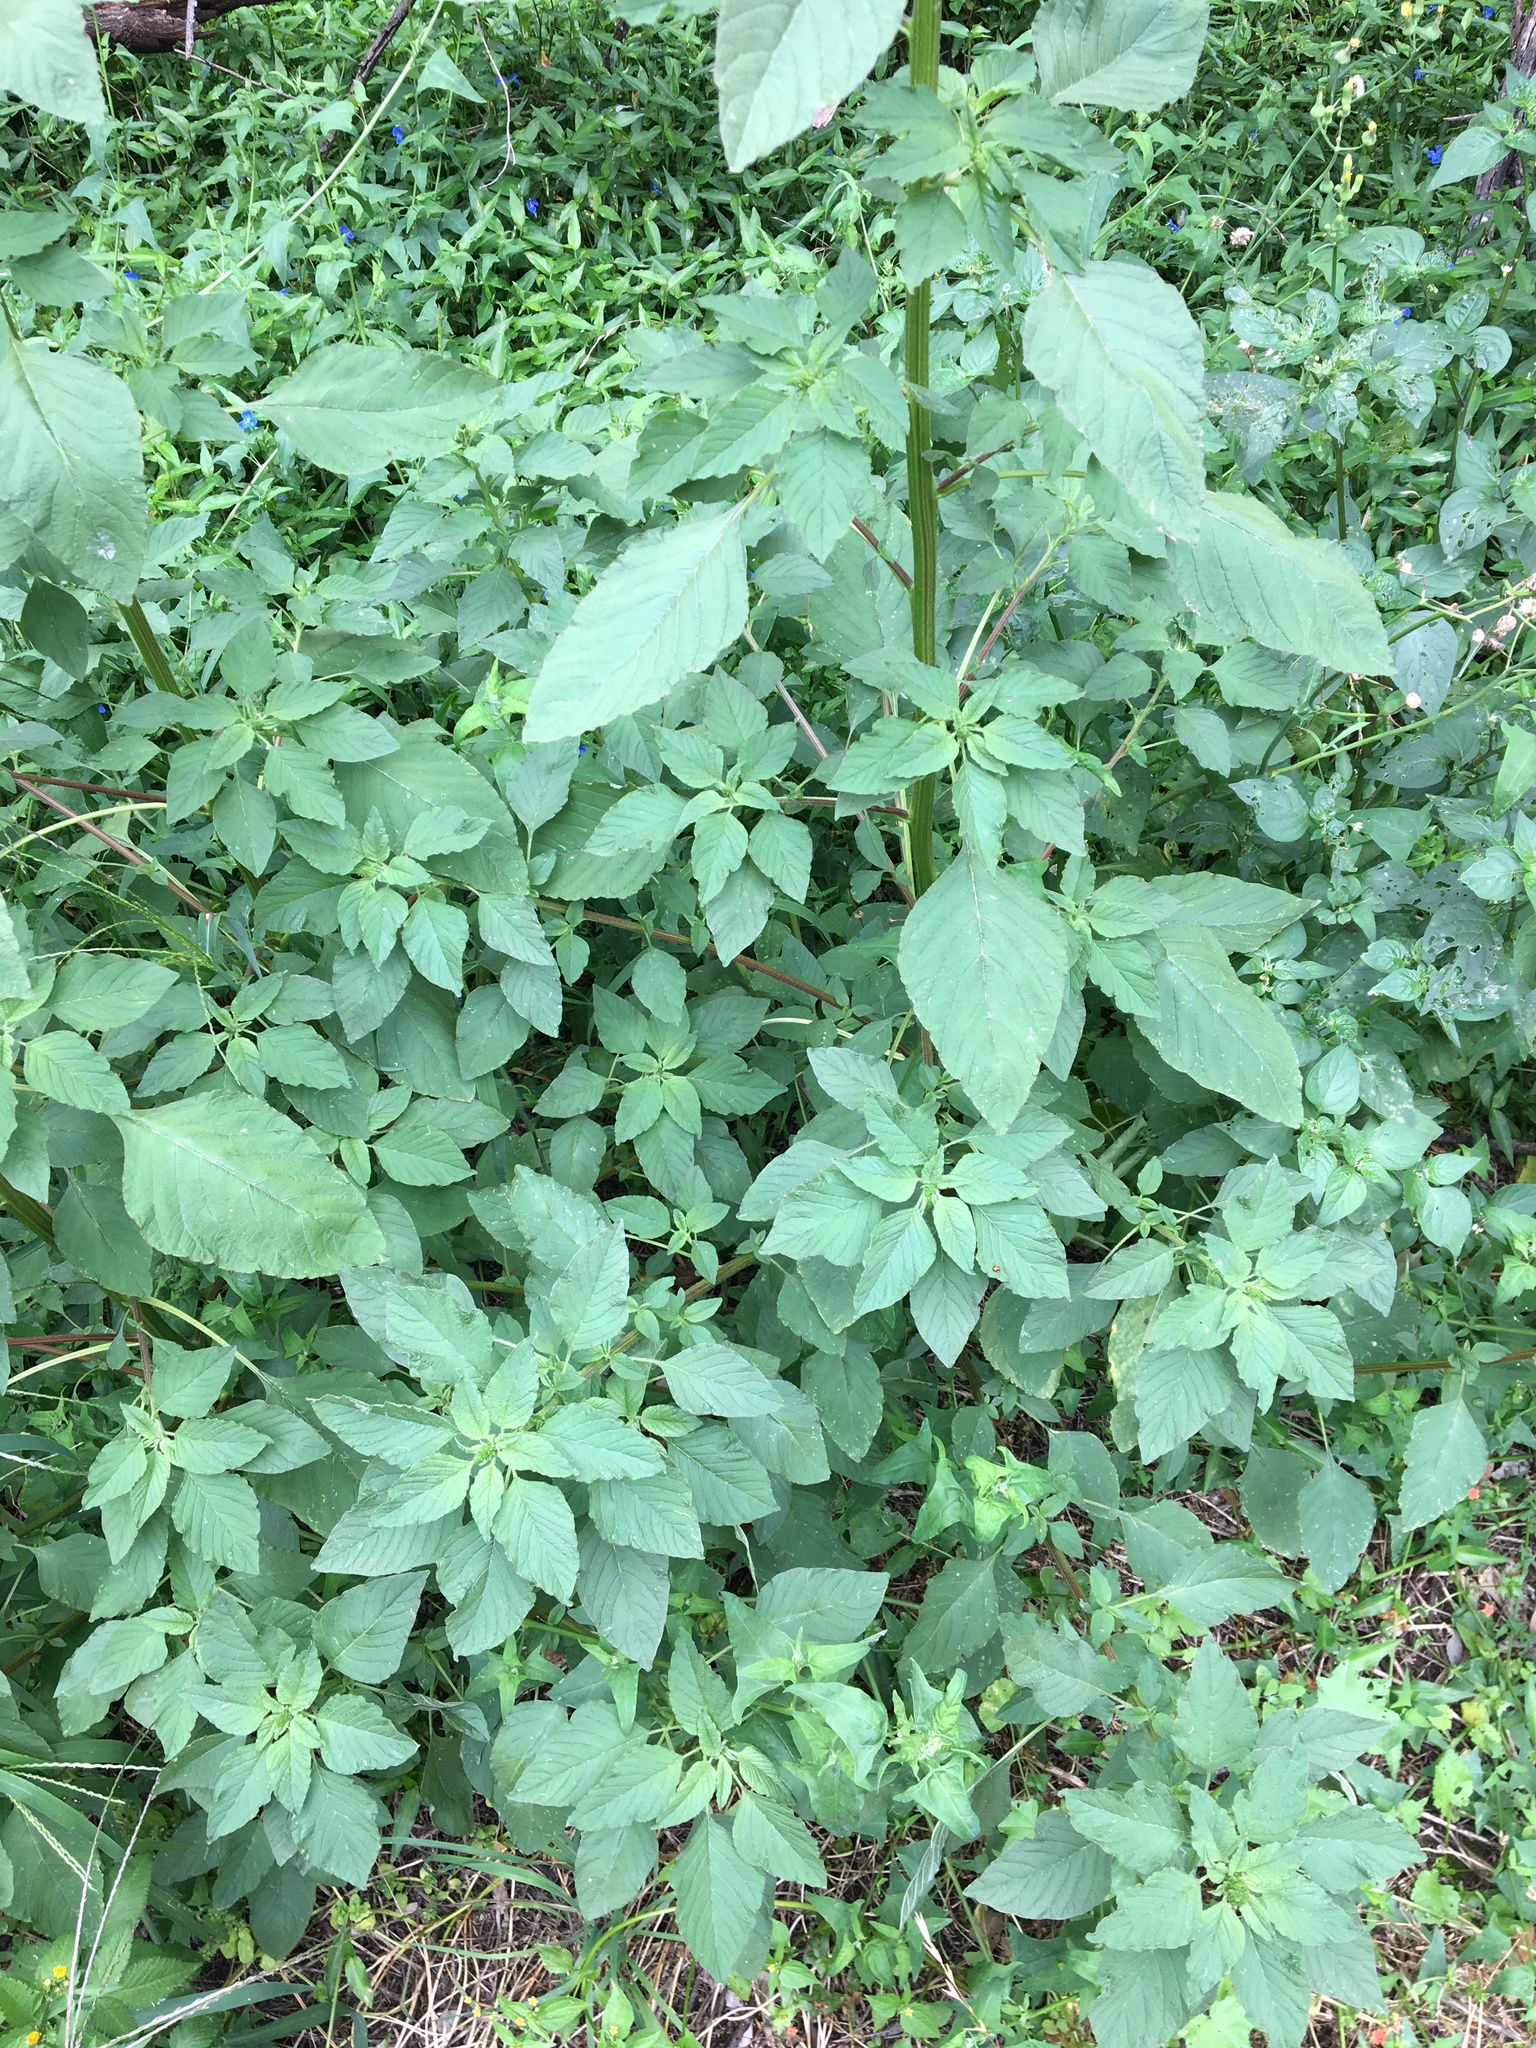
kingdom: Plantae
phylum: Tracheophyta
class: Magnoliopsida
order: Caryophyllales
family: Amaranthaceae
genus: Amaranthus
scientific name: Amaranthus viridis
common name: Slender amaranth
